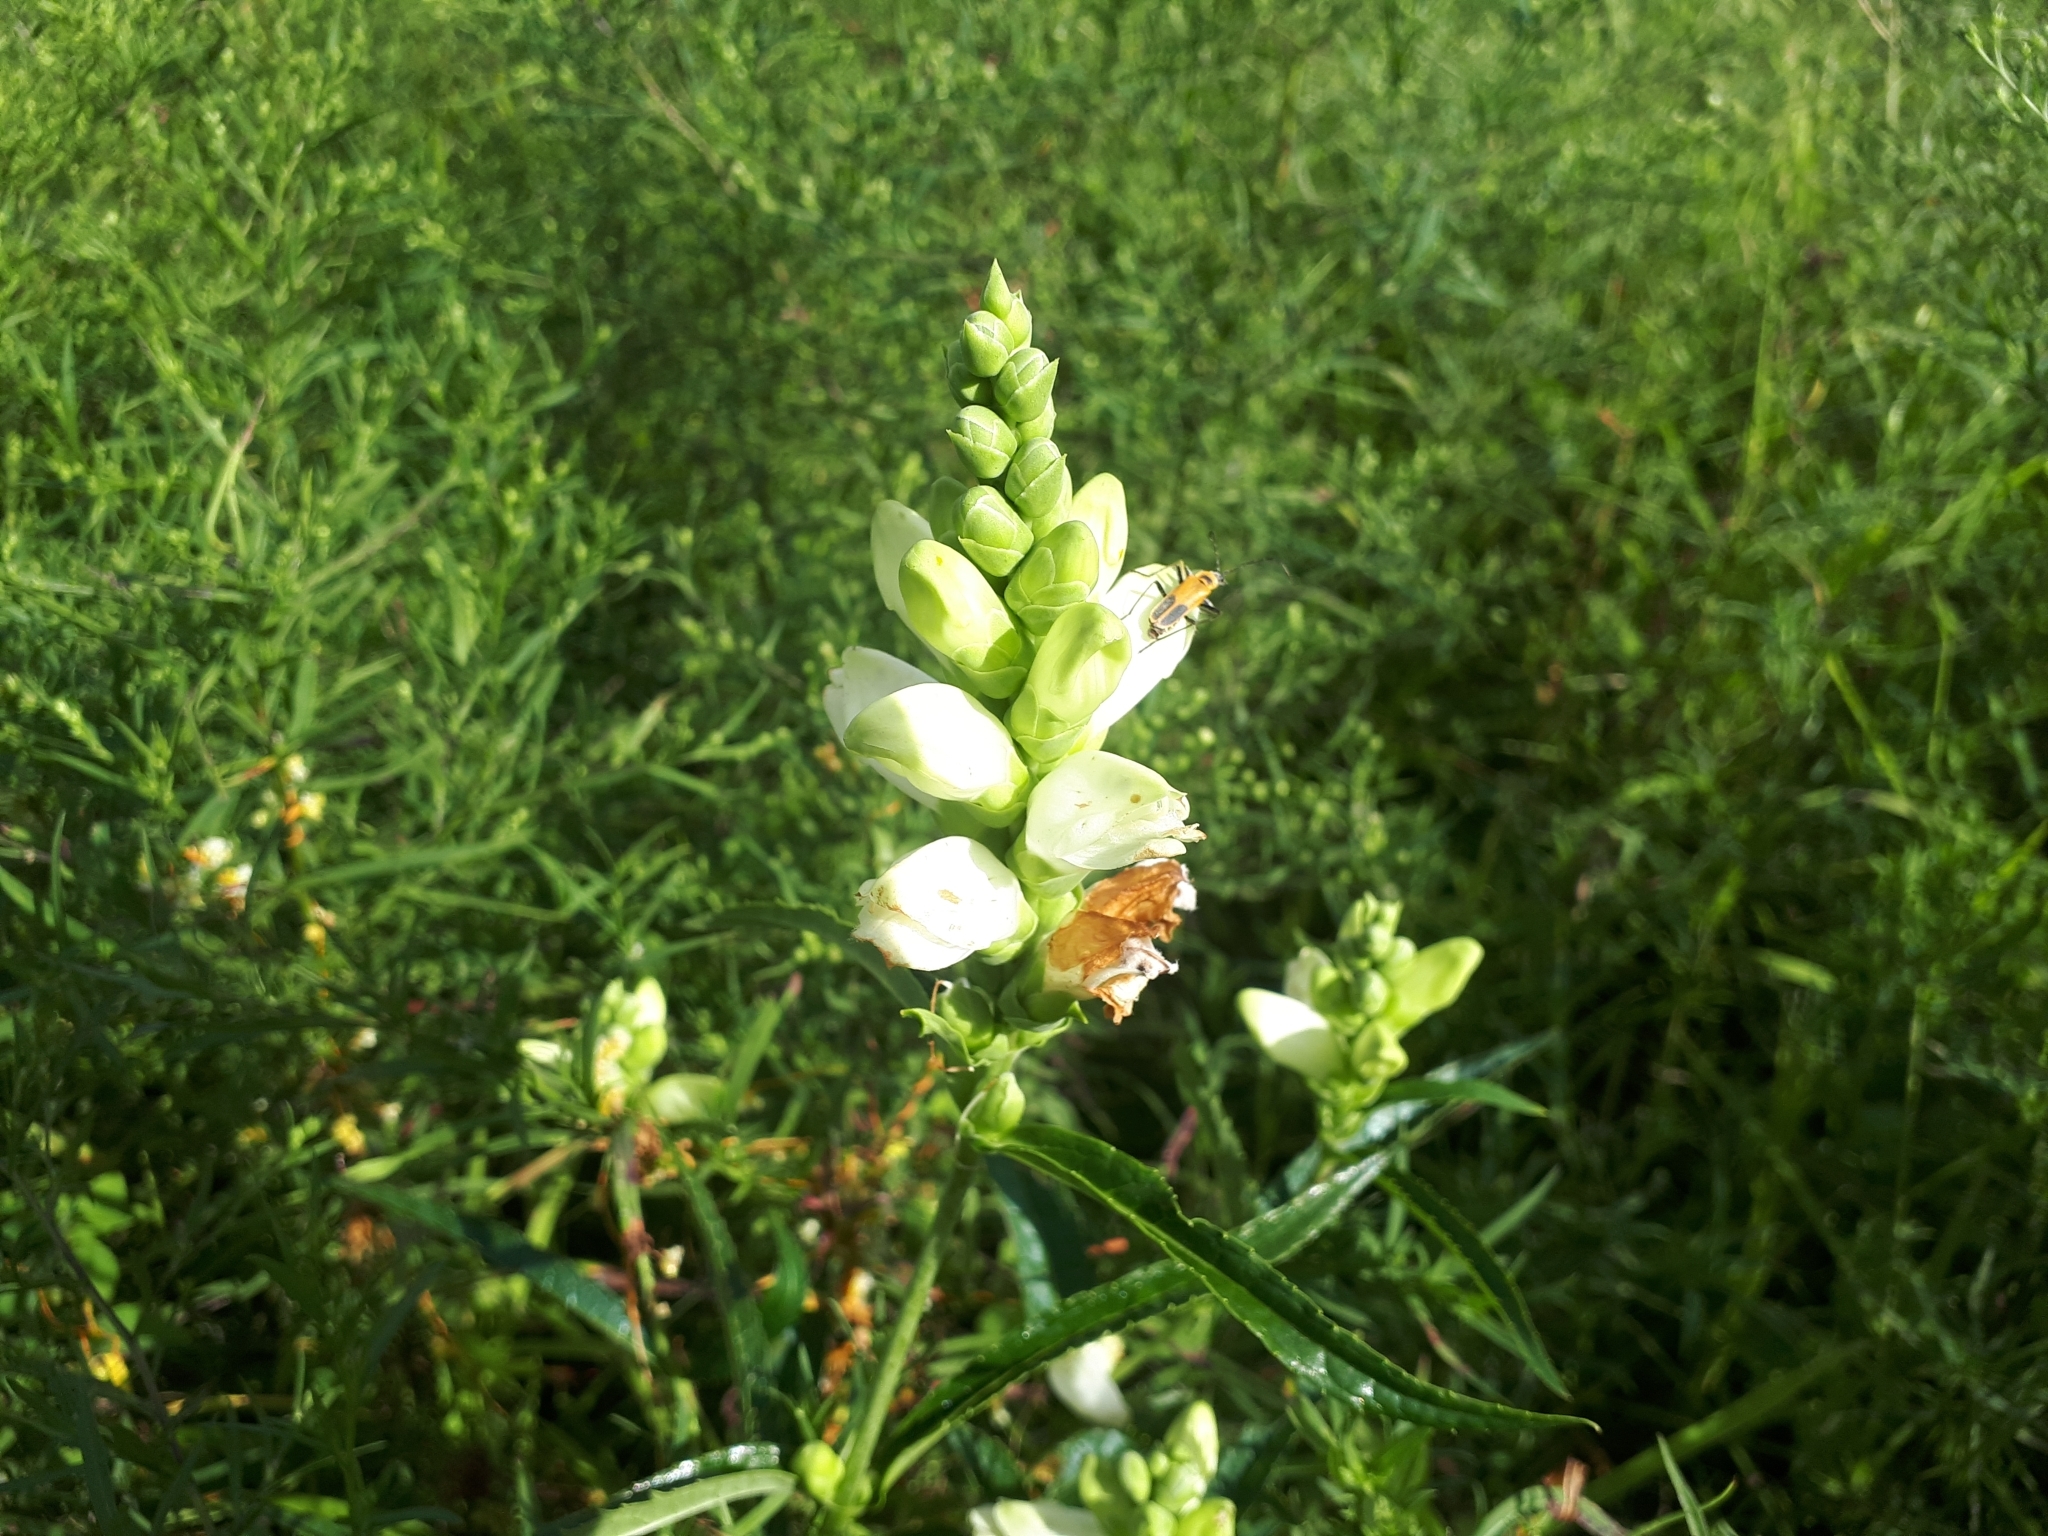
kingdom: Plantae
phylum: Tracheophyta
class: Magnoliopsida
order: Lamiales
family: Plantaginaceae
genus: Chelone
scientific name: Chelone glabra
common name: Snakehead
